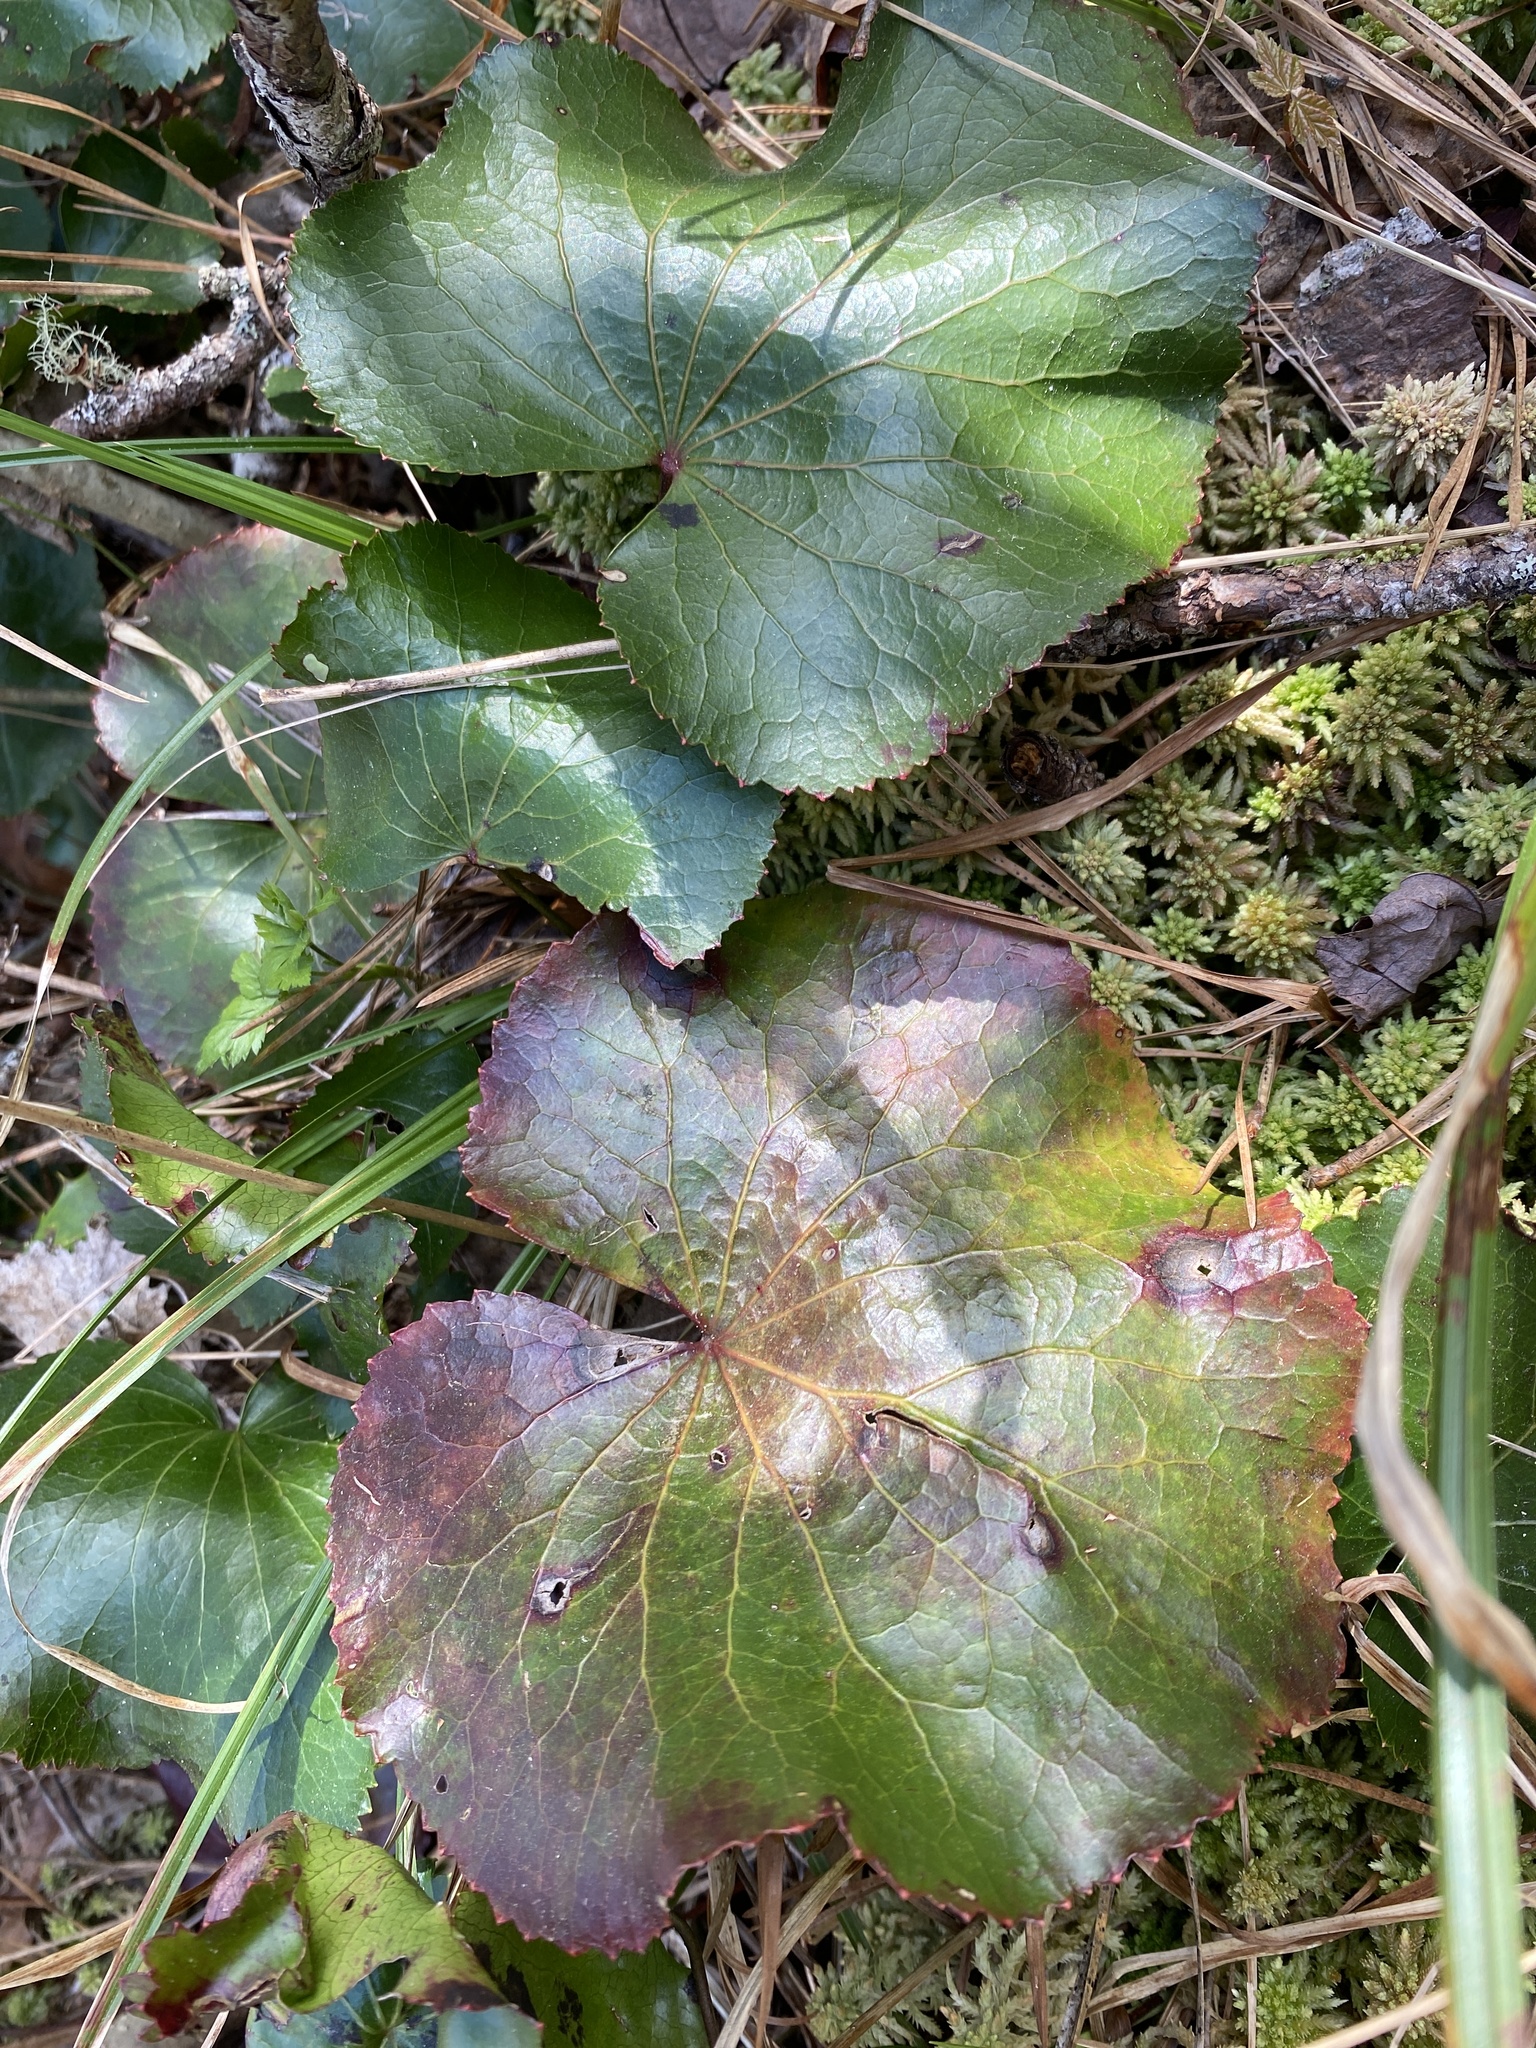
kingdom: Plantae
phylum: Tracheophyta
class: Magnoliopsida
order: Ericales
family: Diapensiaceae
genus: Galax
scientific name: Galax urceolata
